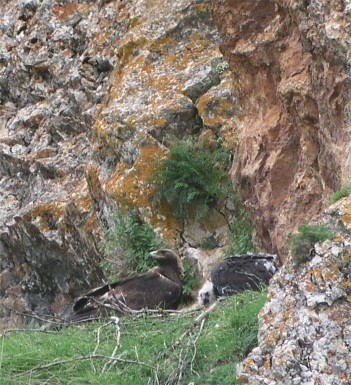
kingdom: Animalia
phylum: Chordata
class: Aves
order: Accipitriformes
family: Accipitridae
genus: Aquila
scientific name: Aquila chrysaetos
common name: Golden eagle
